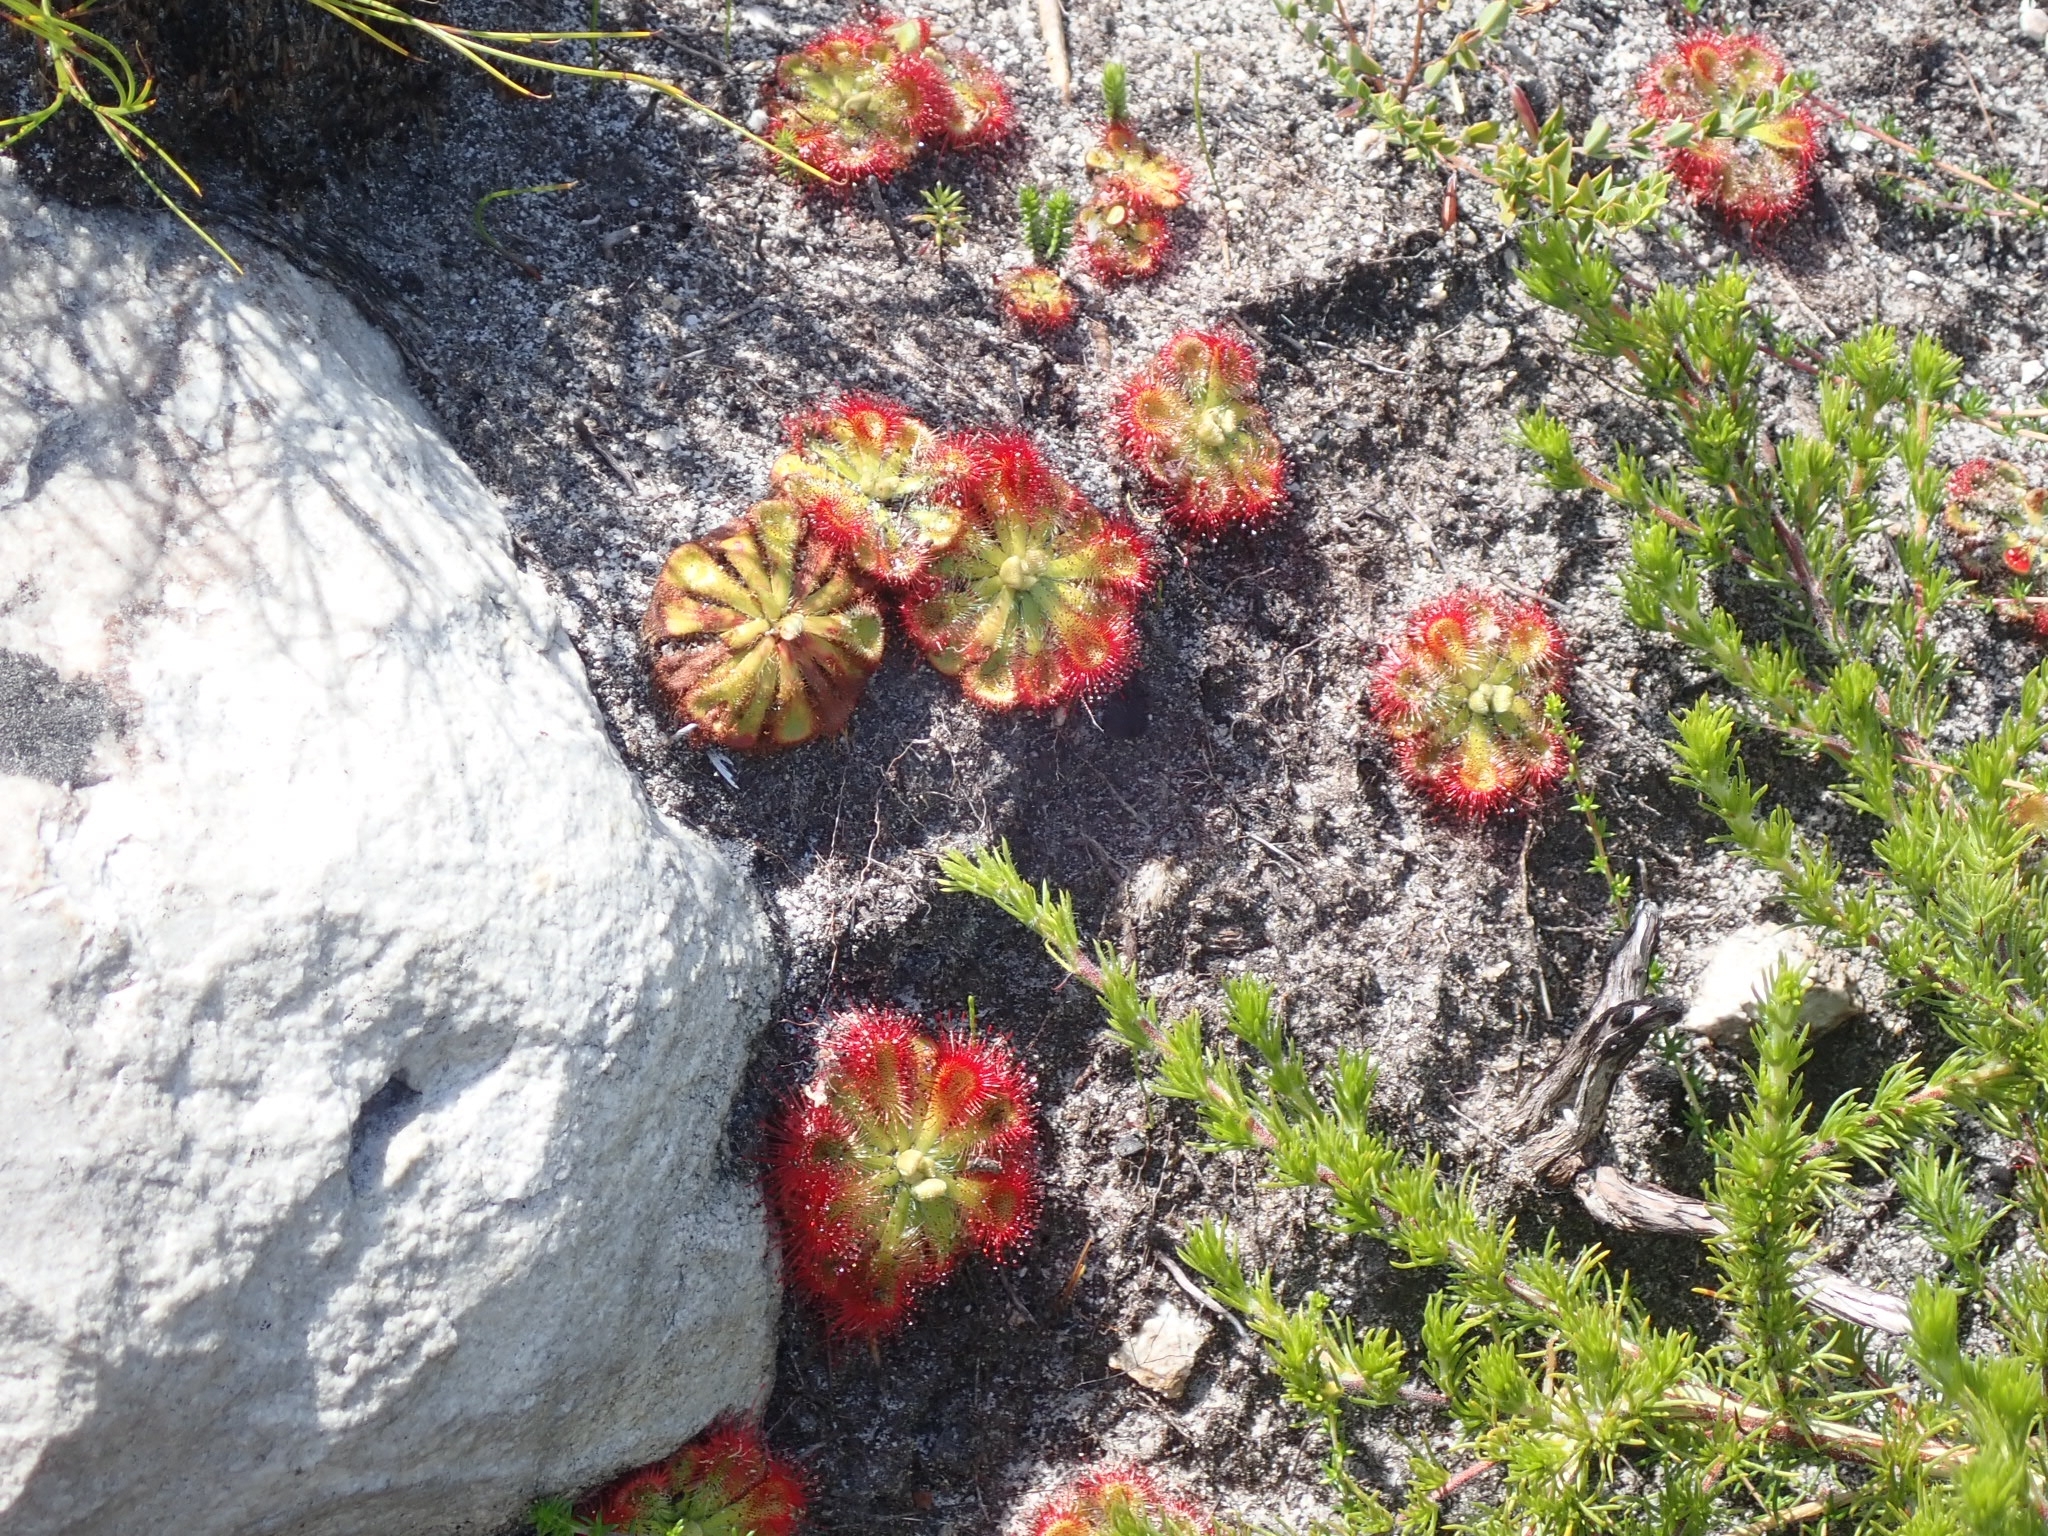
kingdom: Plantae
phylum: Tracheophyta
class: Magnoliopsida
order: Caryophyllales
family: Droseraceae
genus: Drosera
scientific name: Drosera xerophila
